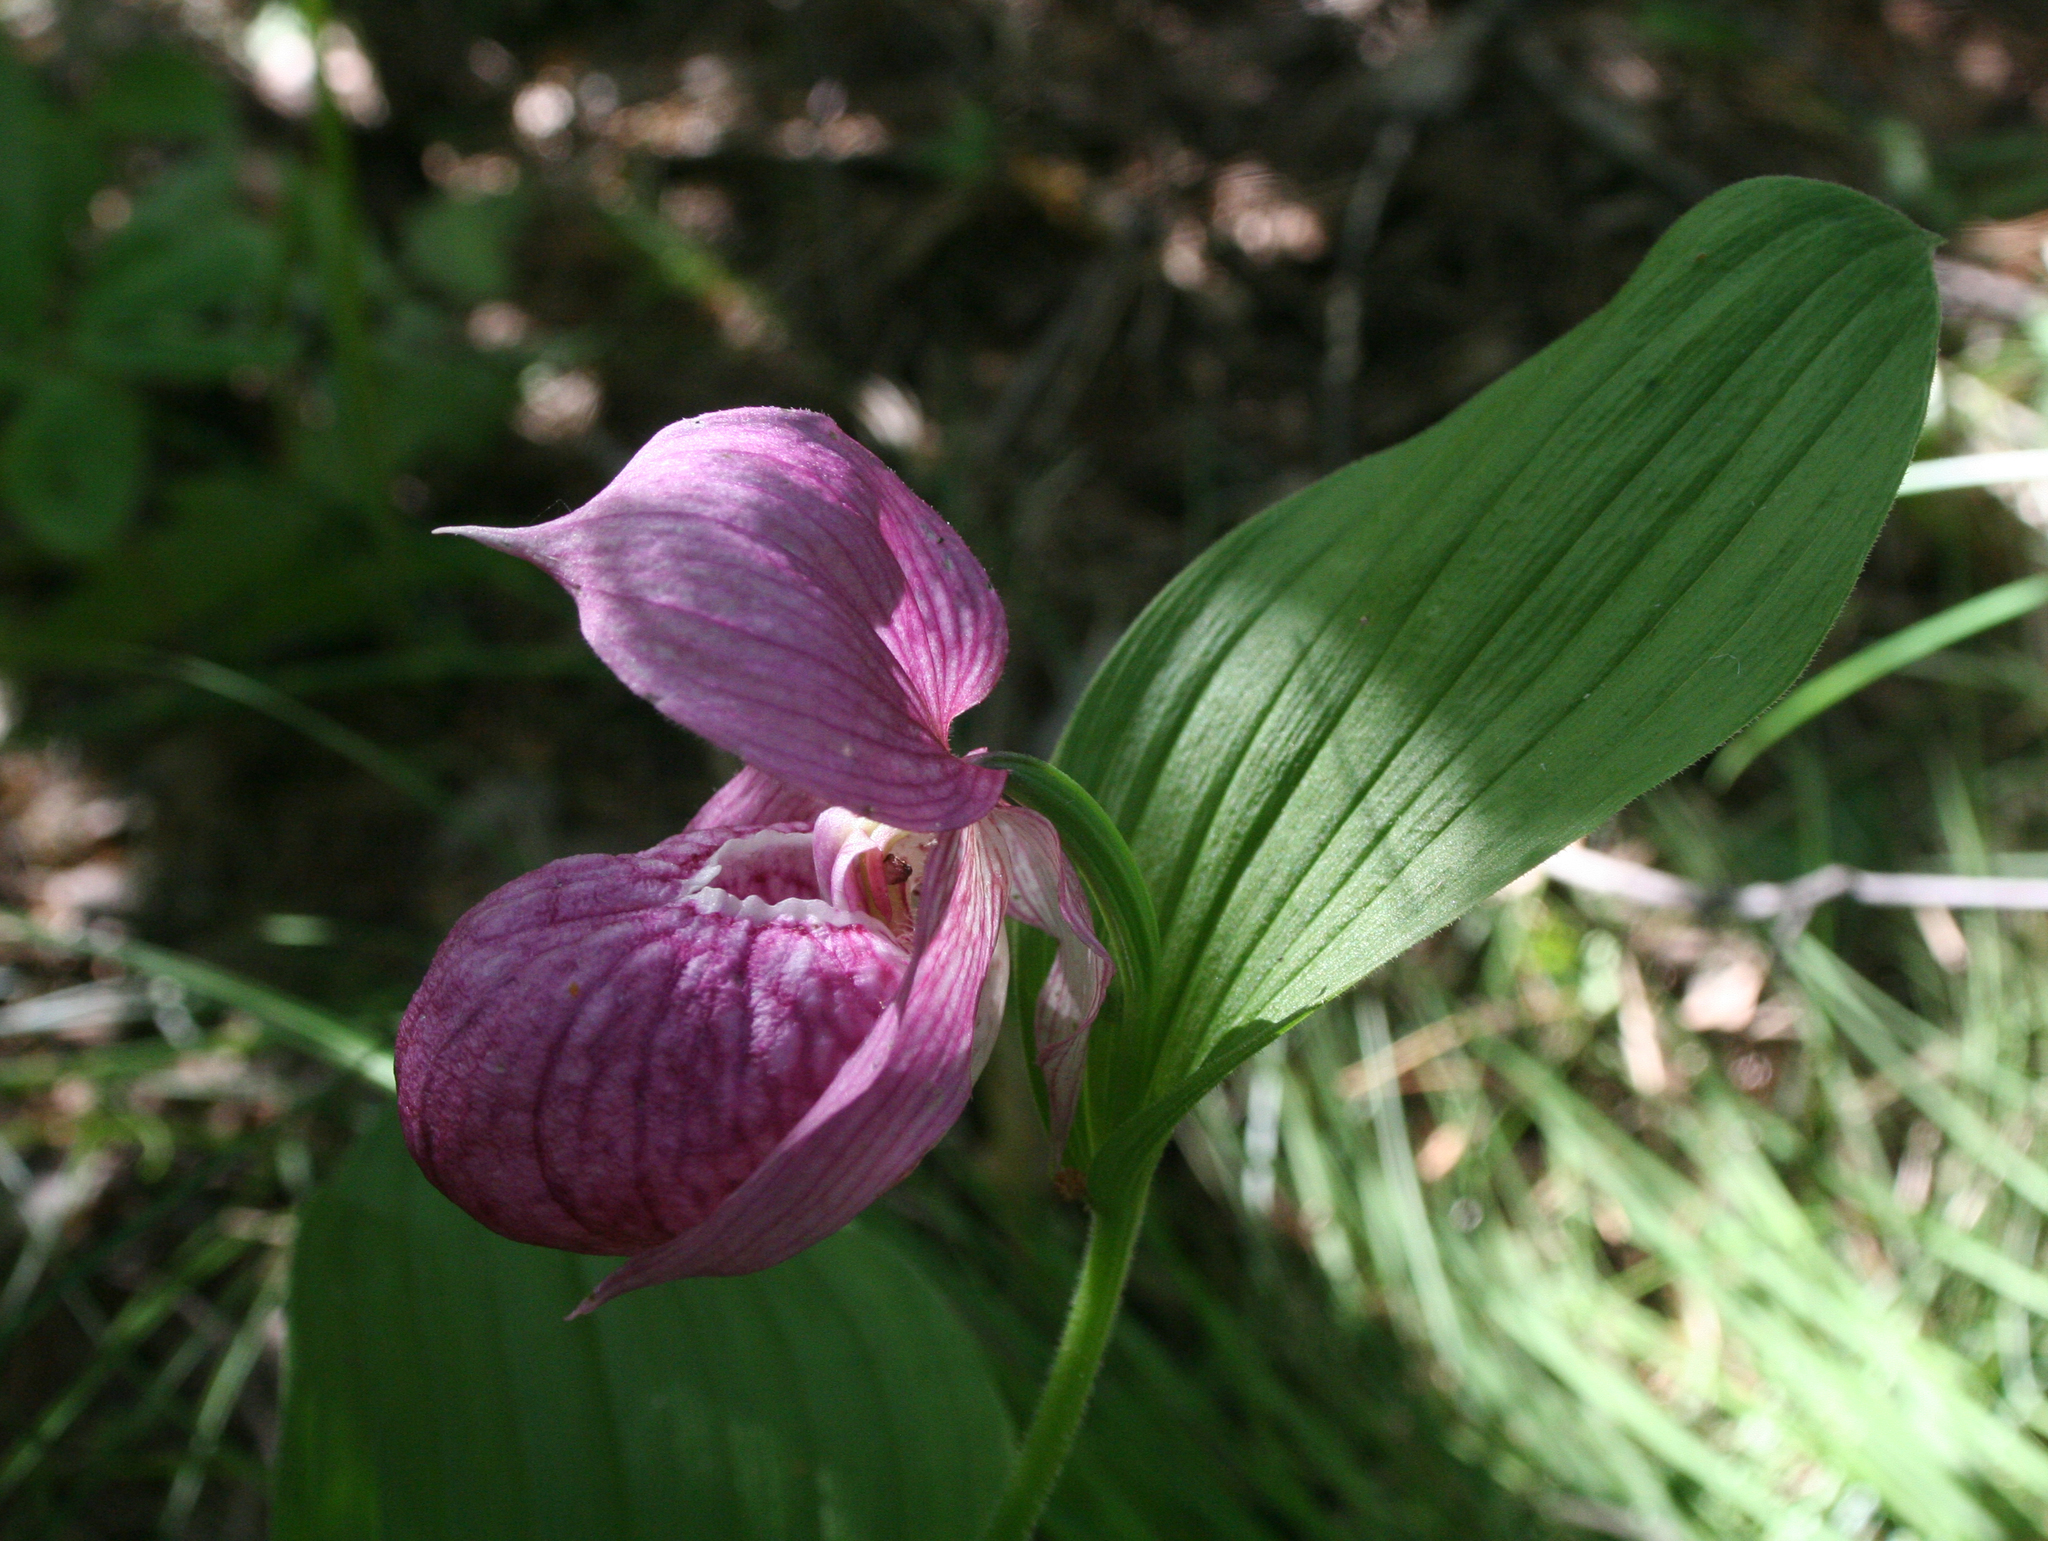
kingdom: Plantae
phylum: Tracheophyta
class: Liliopsida
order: Asparagales
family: Orchidaceae
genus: Cypripedium
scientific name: Cypripedium macranthos
